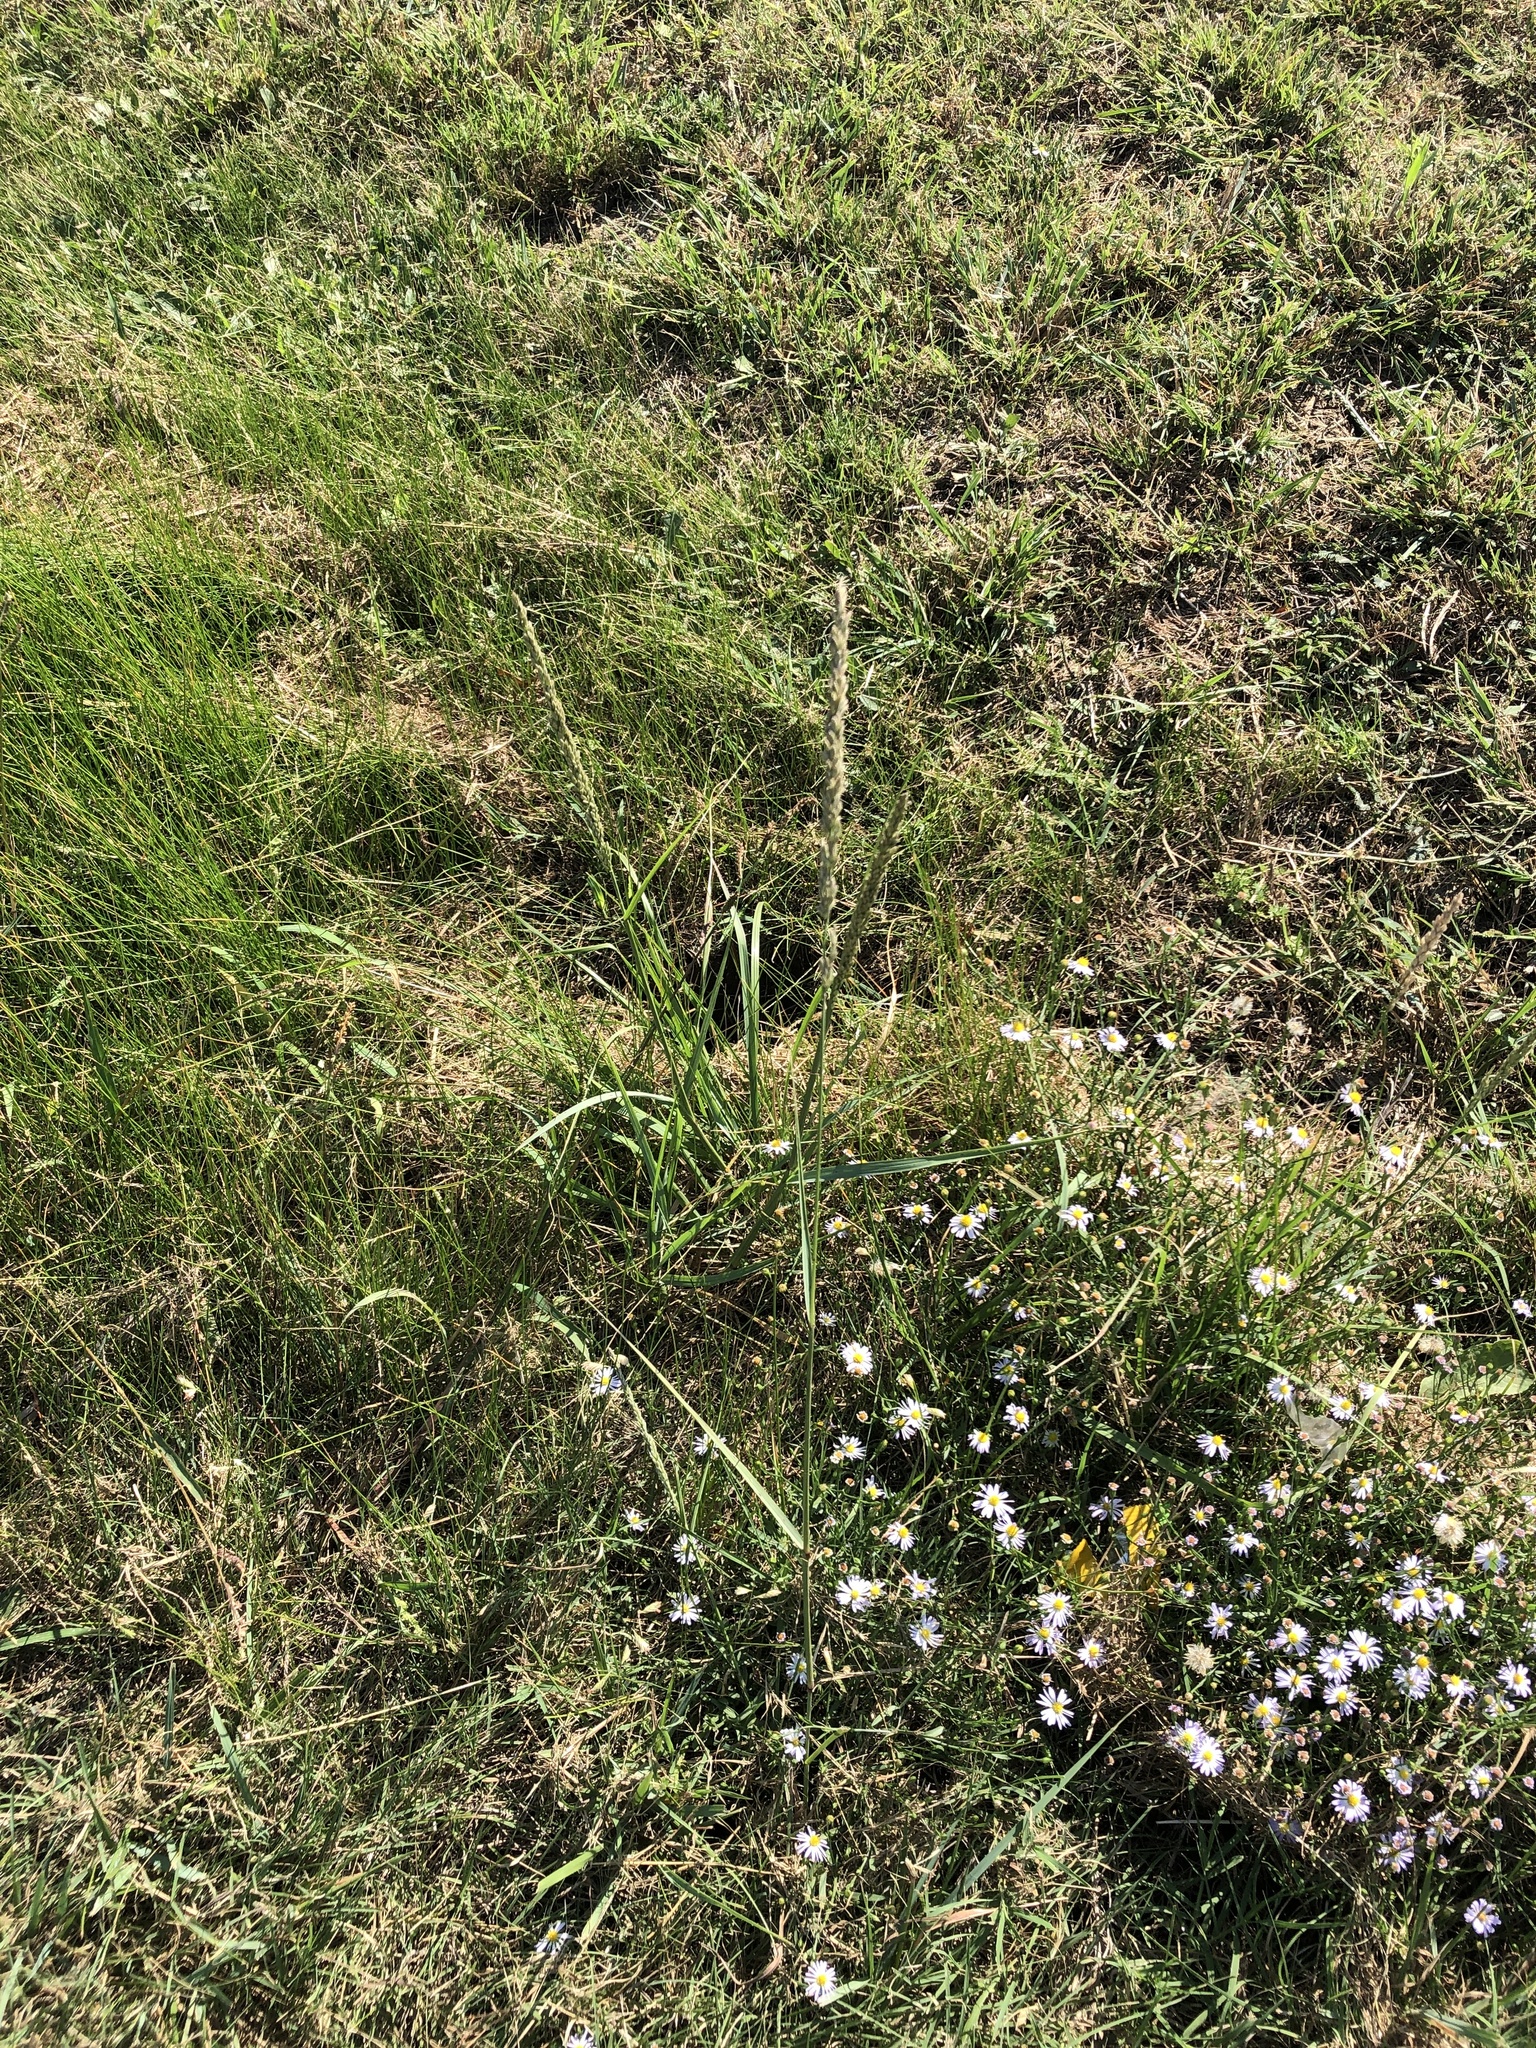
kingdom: Plantae
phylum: Tracheophyta
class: Liliopsida
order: Poales
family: Poaceae
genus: Tridens
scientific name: Tridens albescens
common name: White tridens
